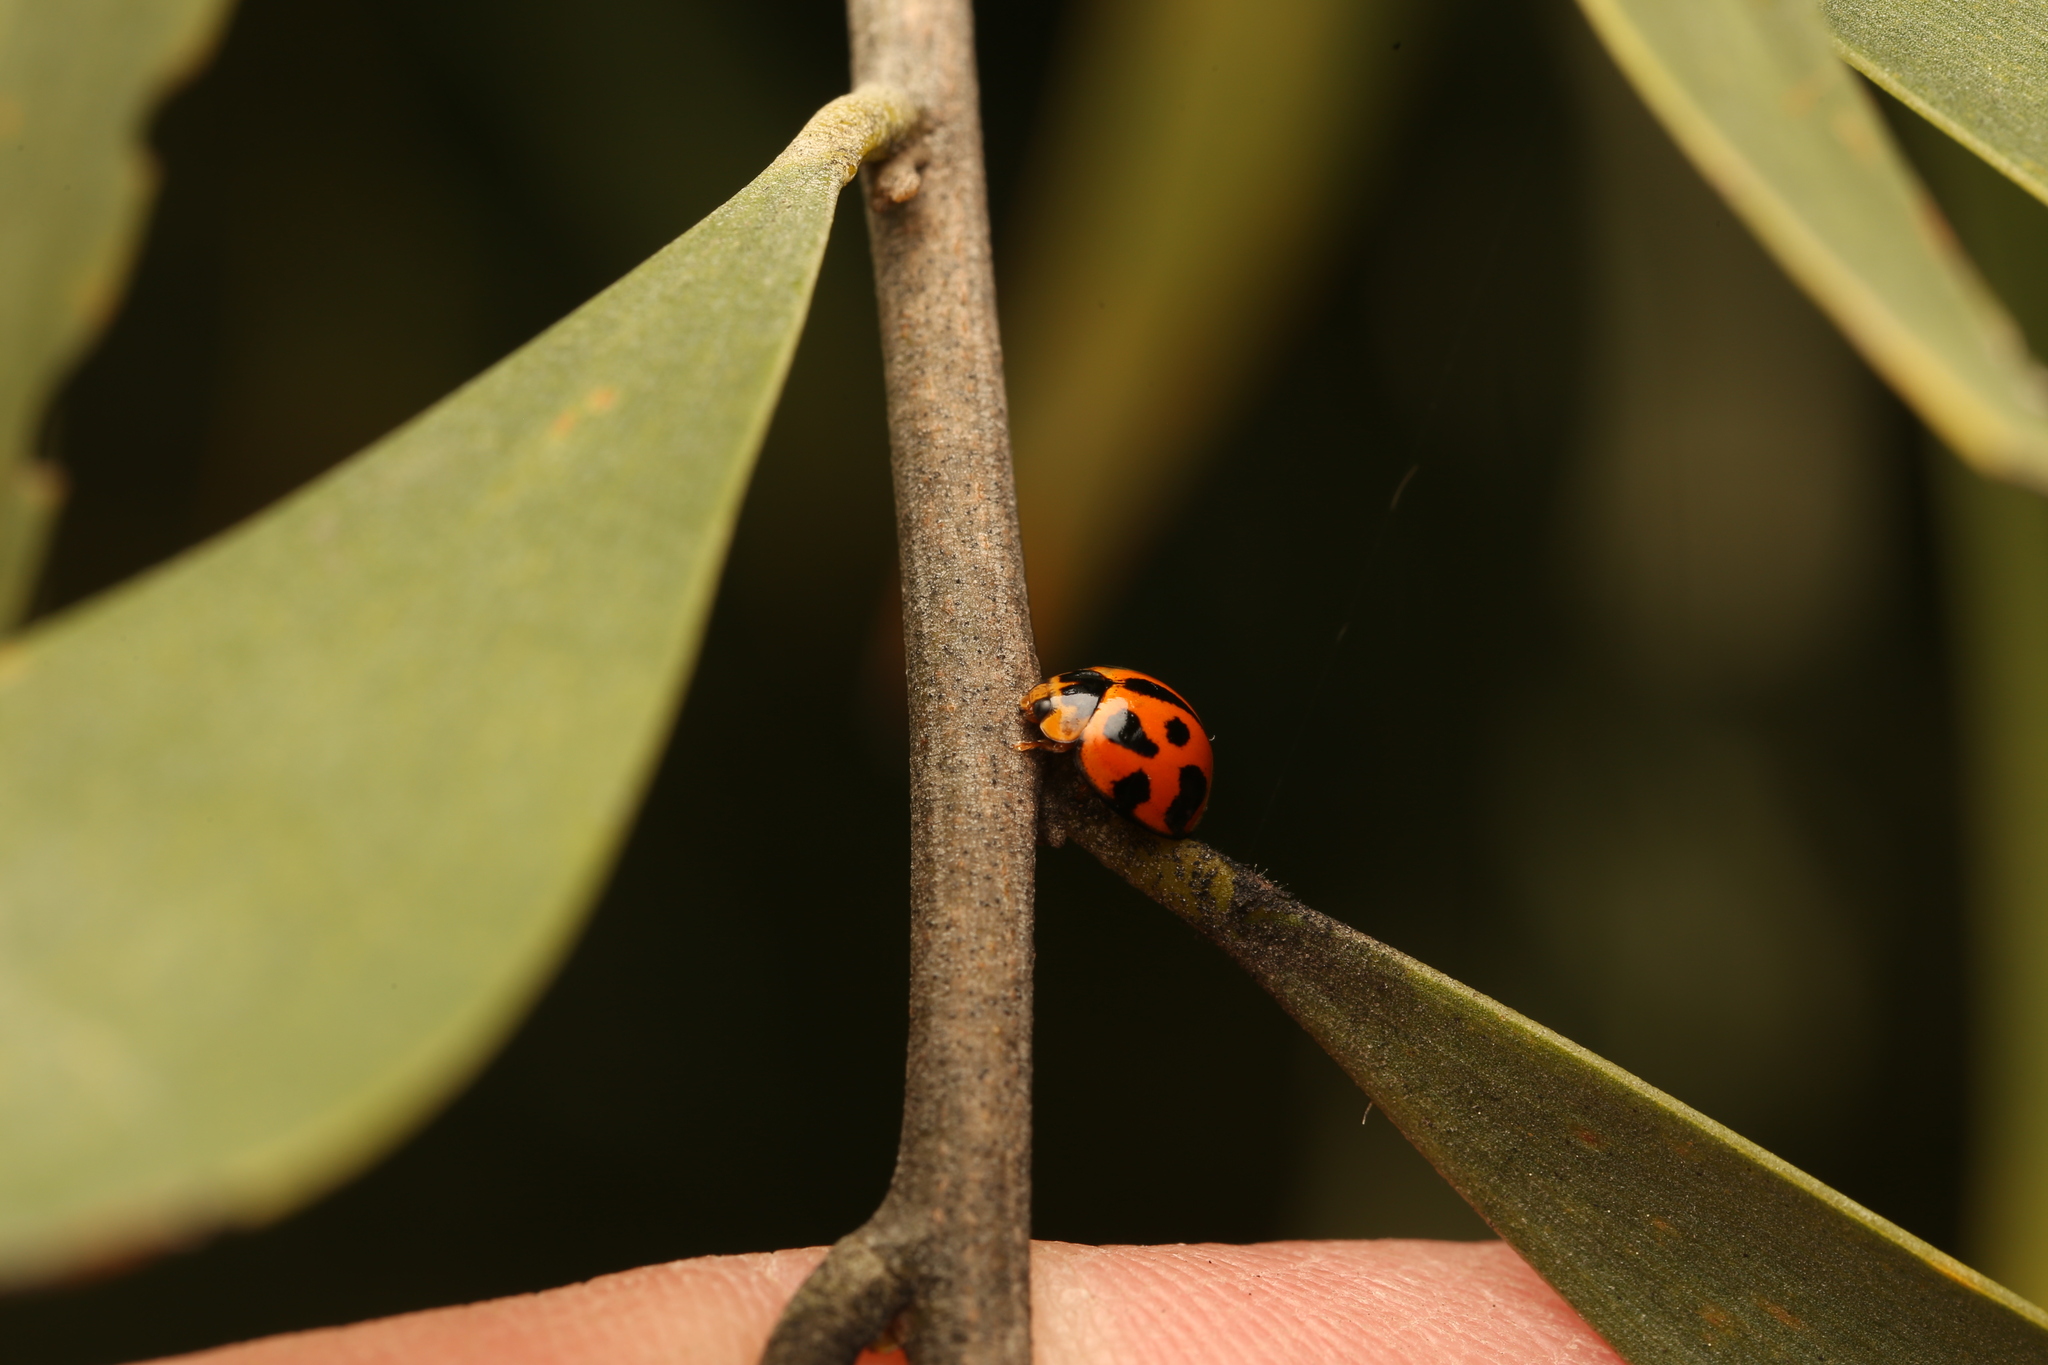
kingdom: Animalia
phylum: Arthropoda
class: Insecta
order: Coleoptera
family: Coccinellidae
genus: Coelophora
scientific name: Coelophora inaequalis
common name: Common australian lady beetle
